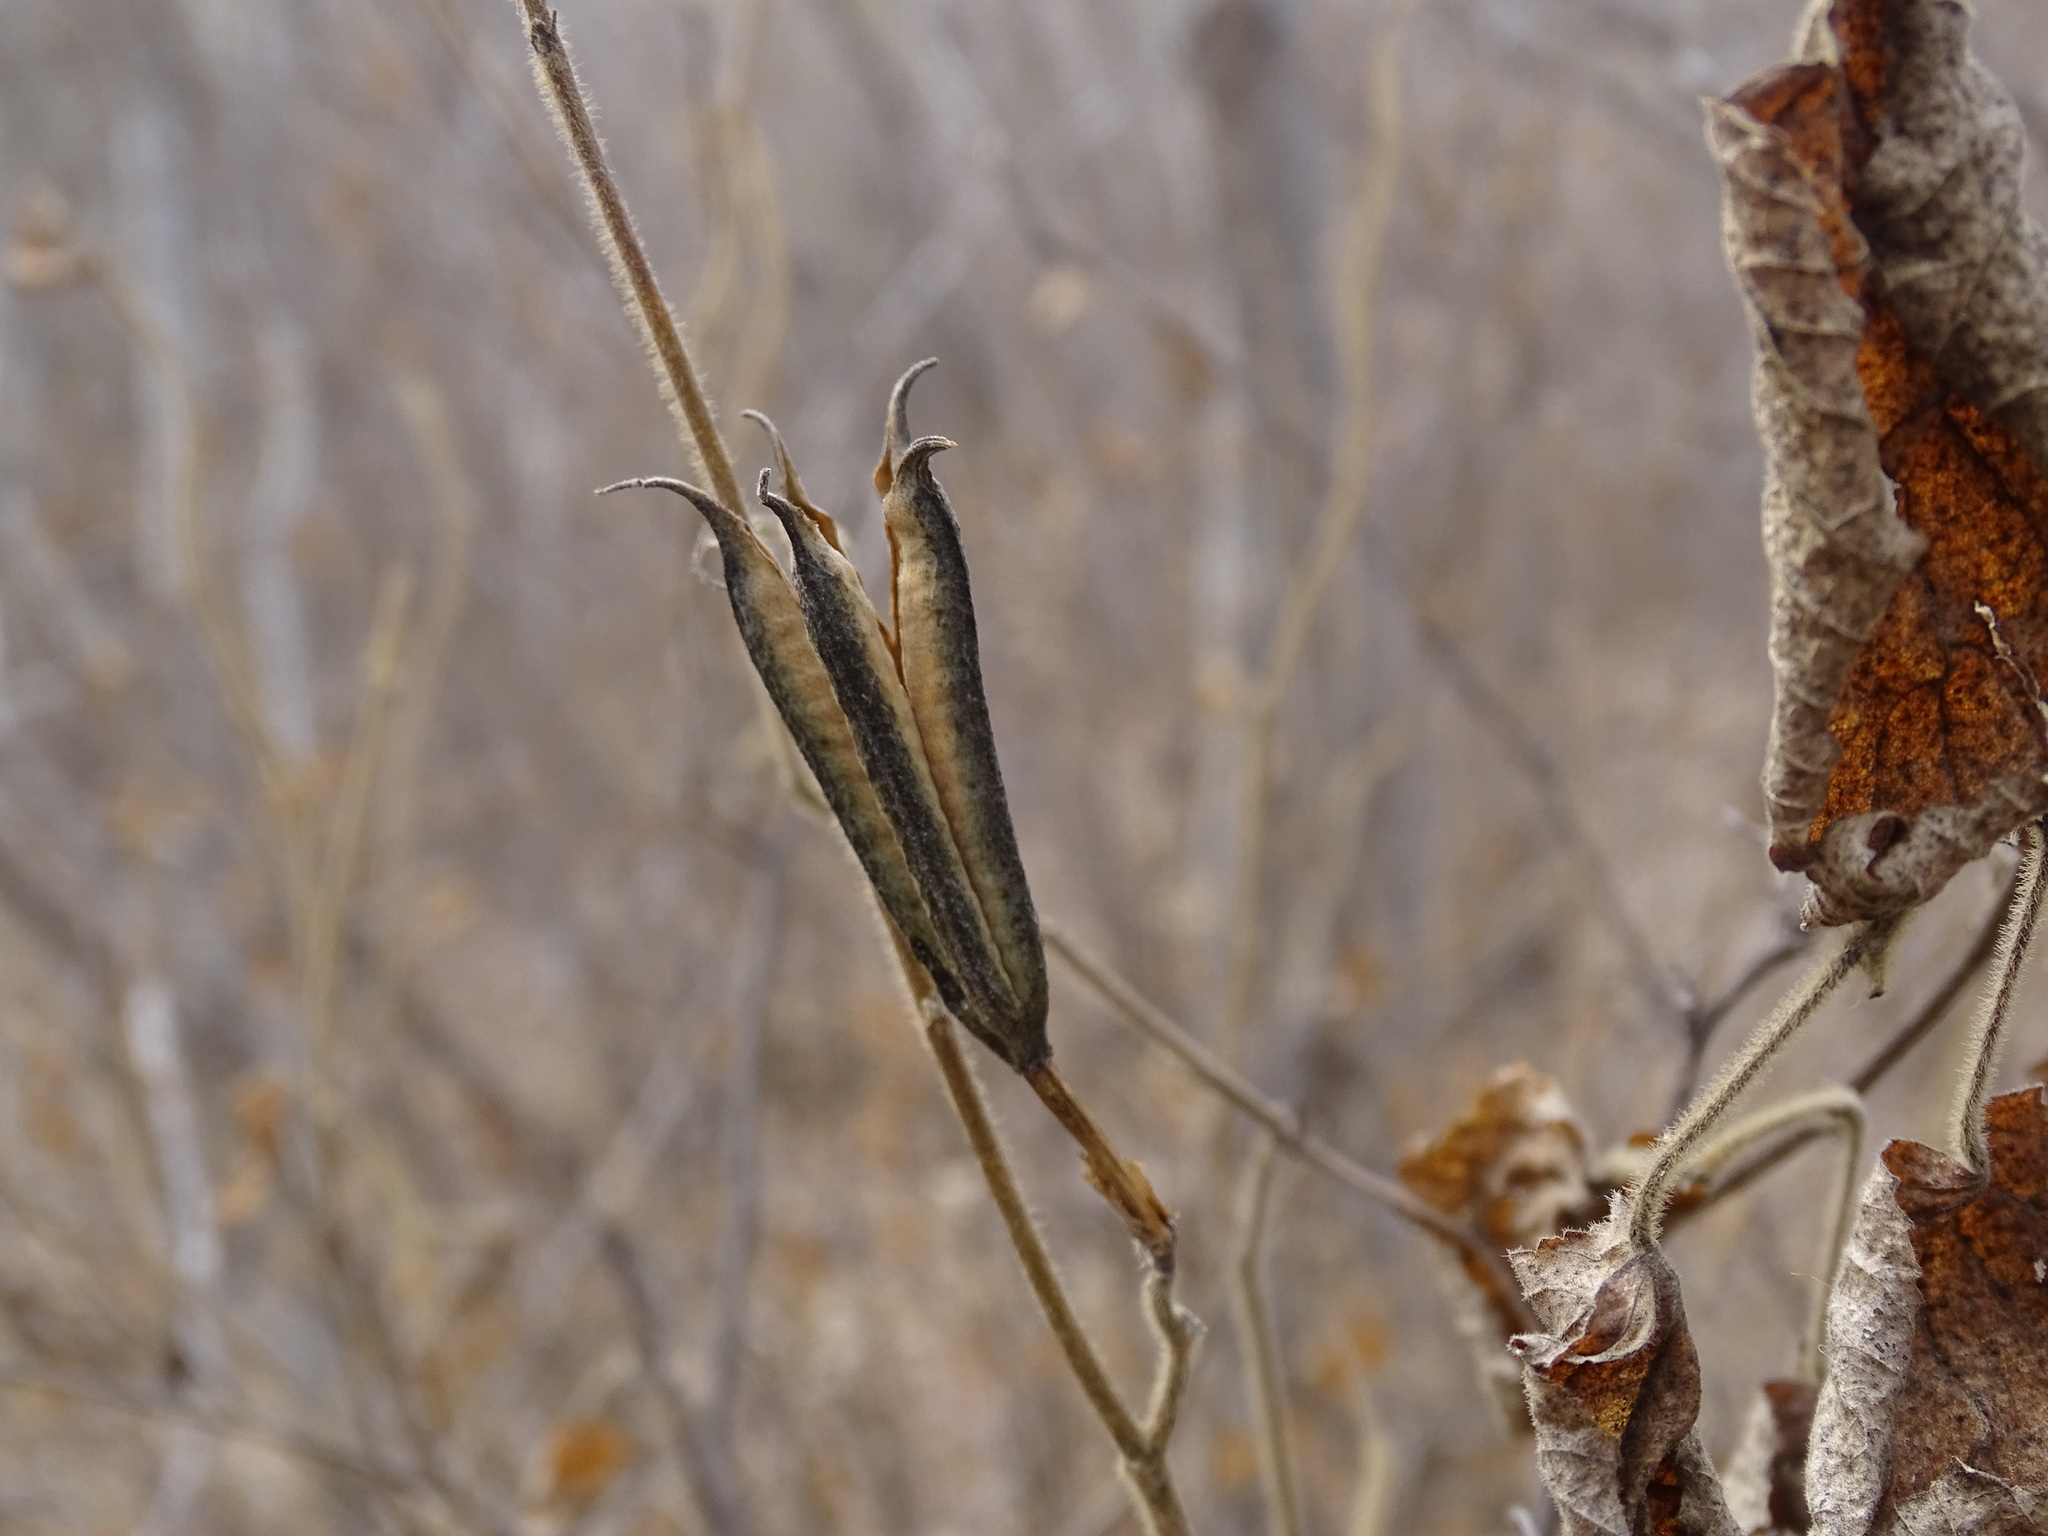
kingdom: Plantae
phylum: Tracheophyta
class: Magnoliopsida
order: Malvales
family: Malvaceae
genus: Helicteres
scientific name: Helicteres vegae
